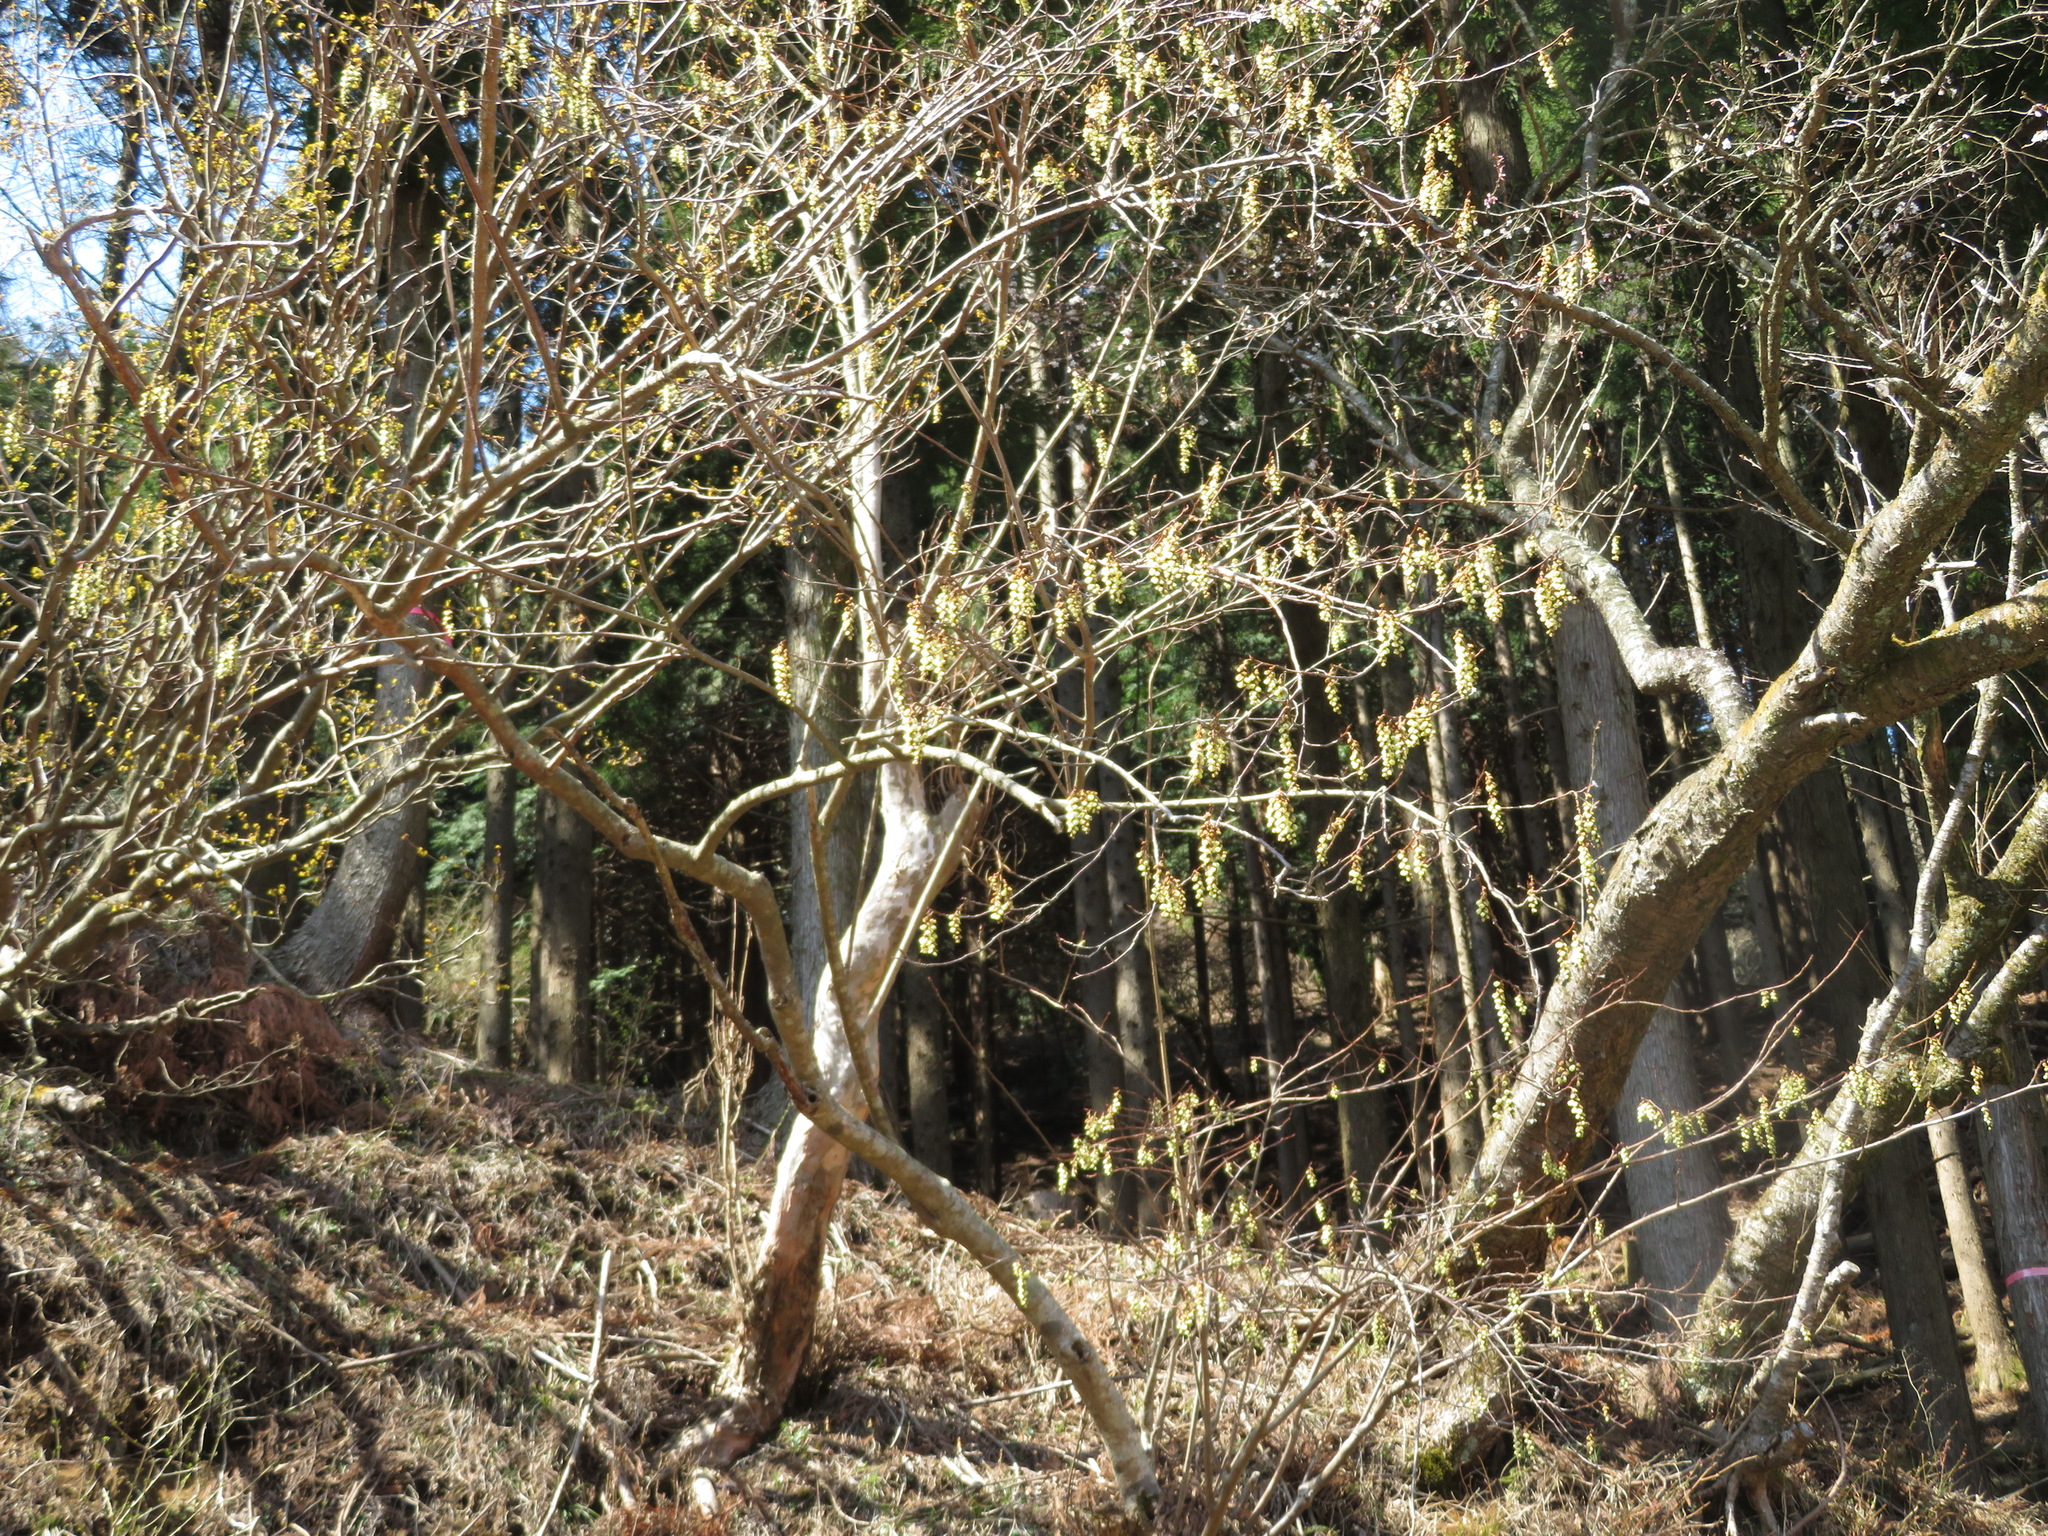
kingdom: Plantae
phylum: Tracheophyta
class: Magnoliopsida
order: Crossosomatales
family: Stachyuraceae
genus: Stachyurus
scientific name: Stachyurus praecox
